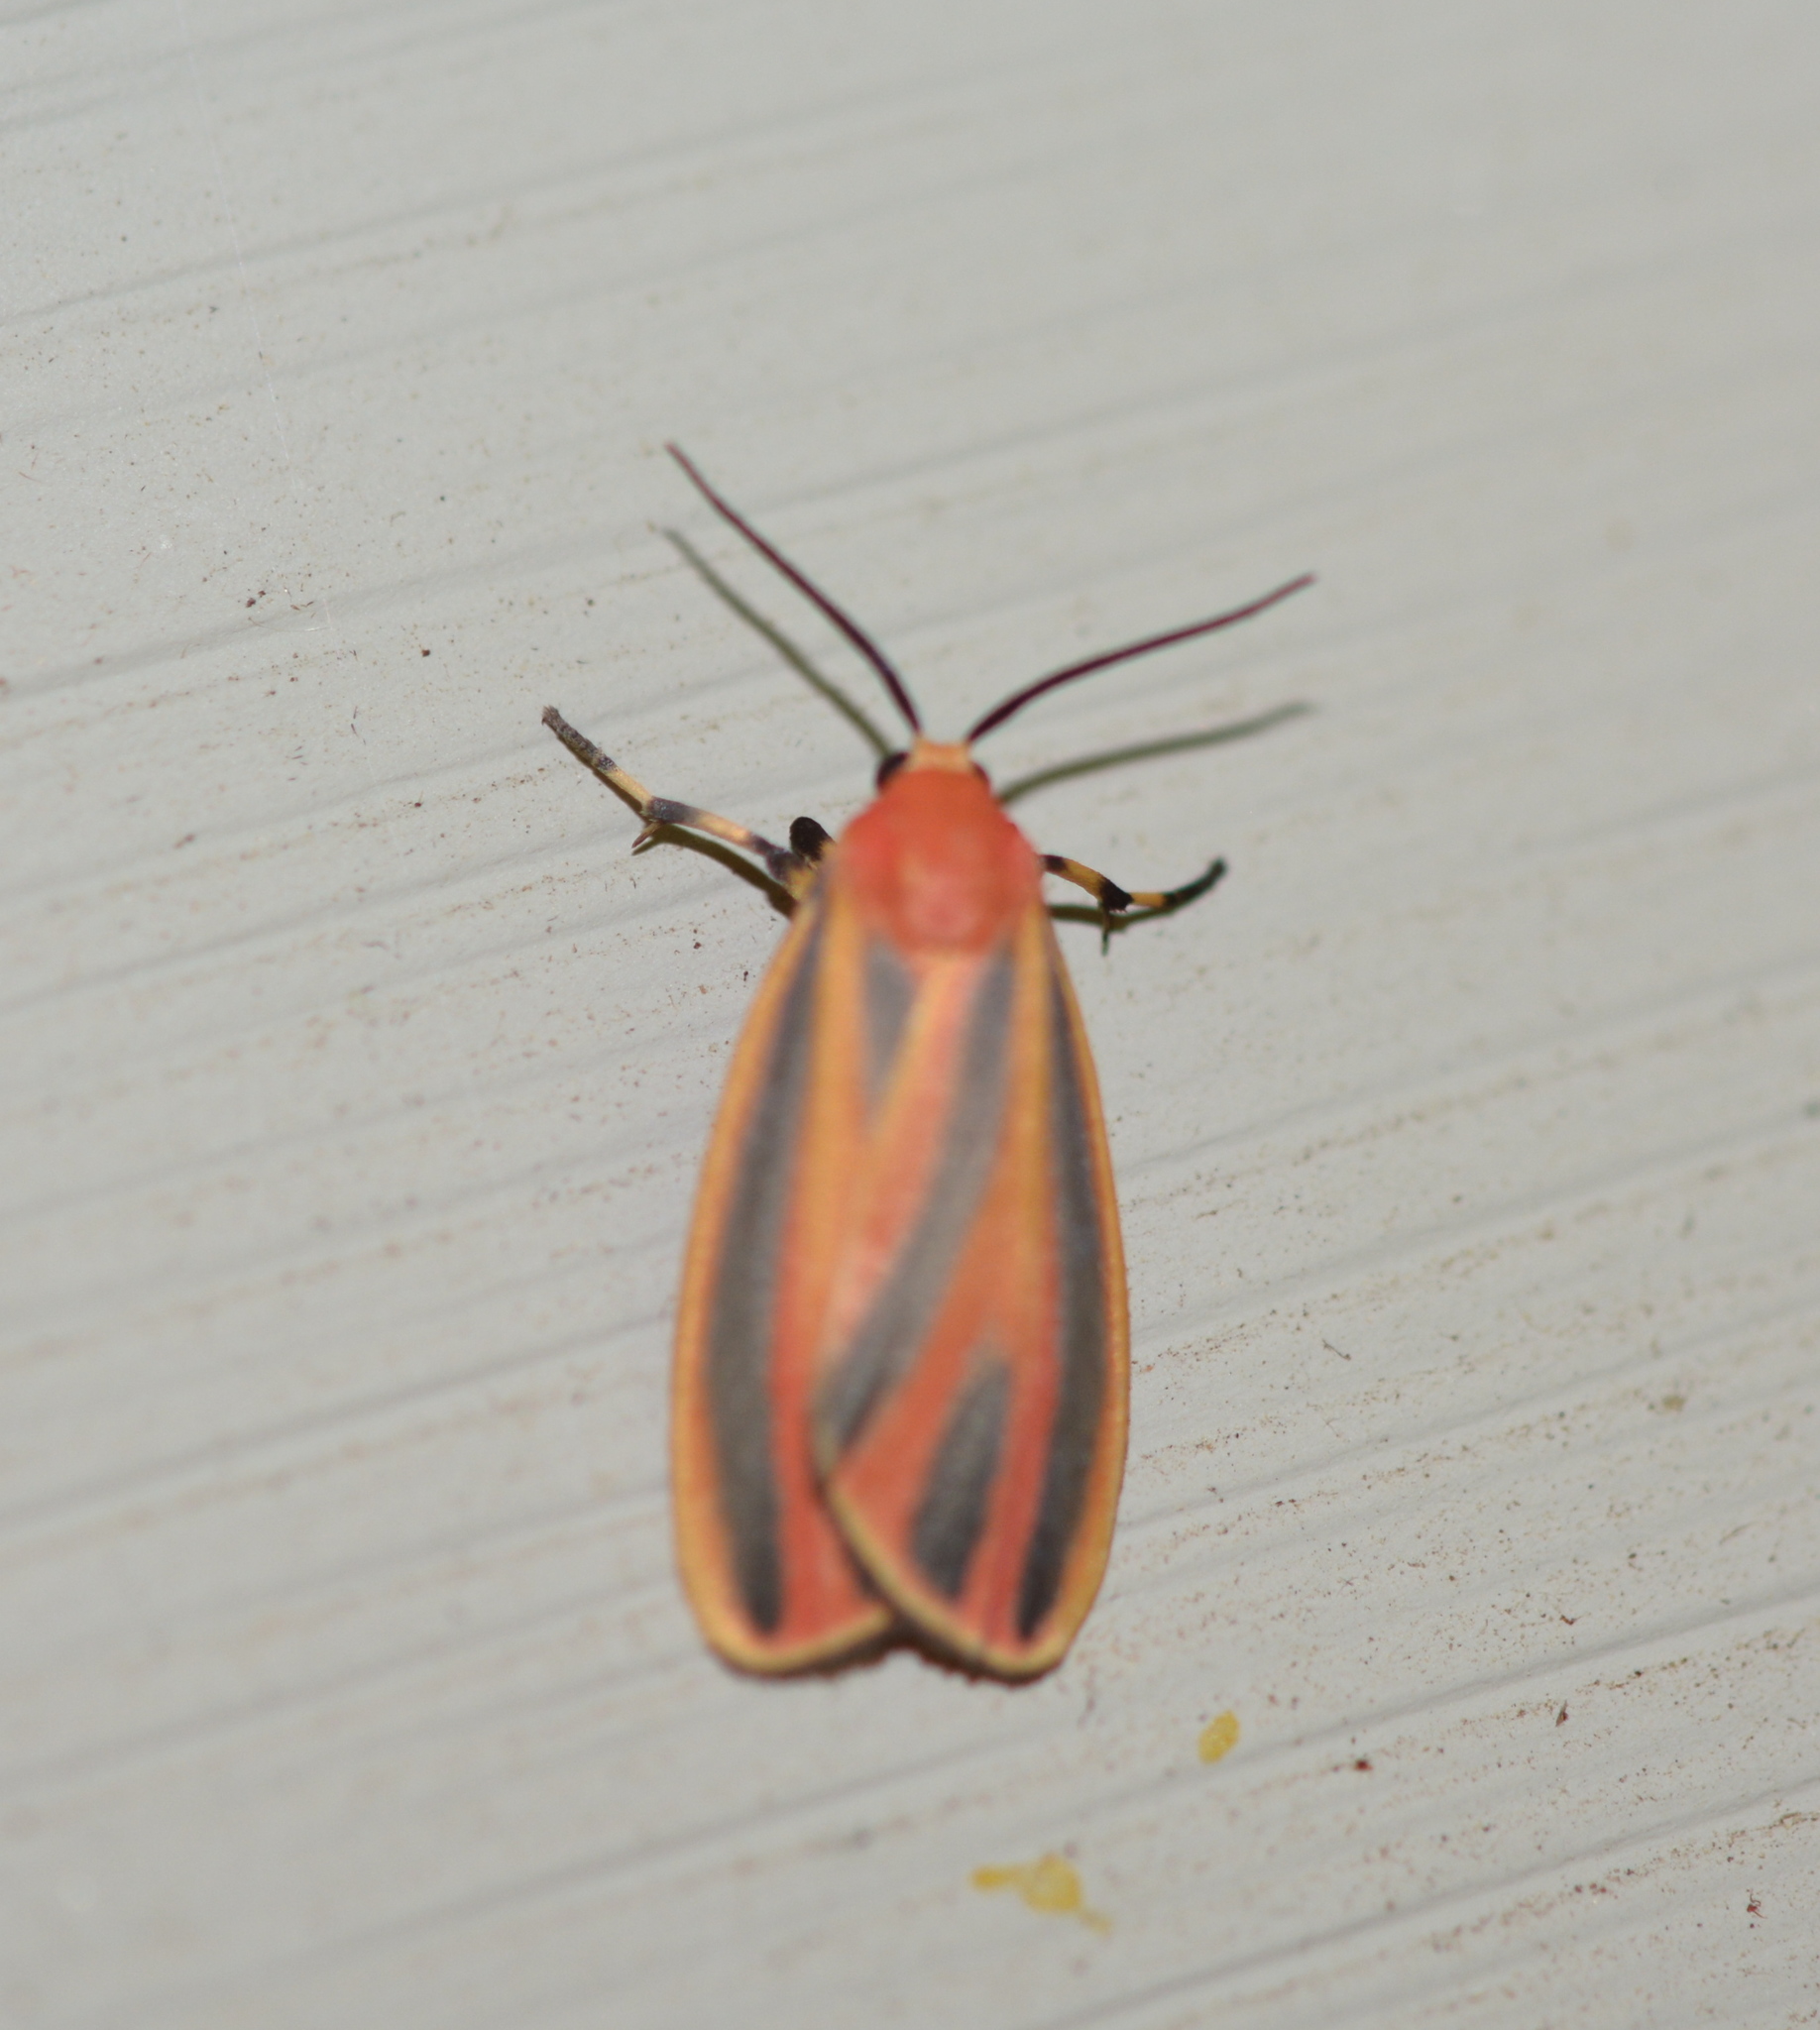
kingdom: Animalia
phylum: Arthropoda
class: Insecta
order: Lepidoptera
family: Erebidae
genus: Hypoprepia
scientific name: Hypoprepia miniata
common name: Scarlet-winged lichen moth
